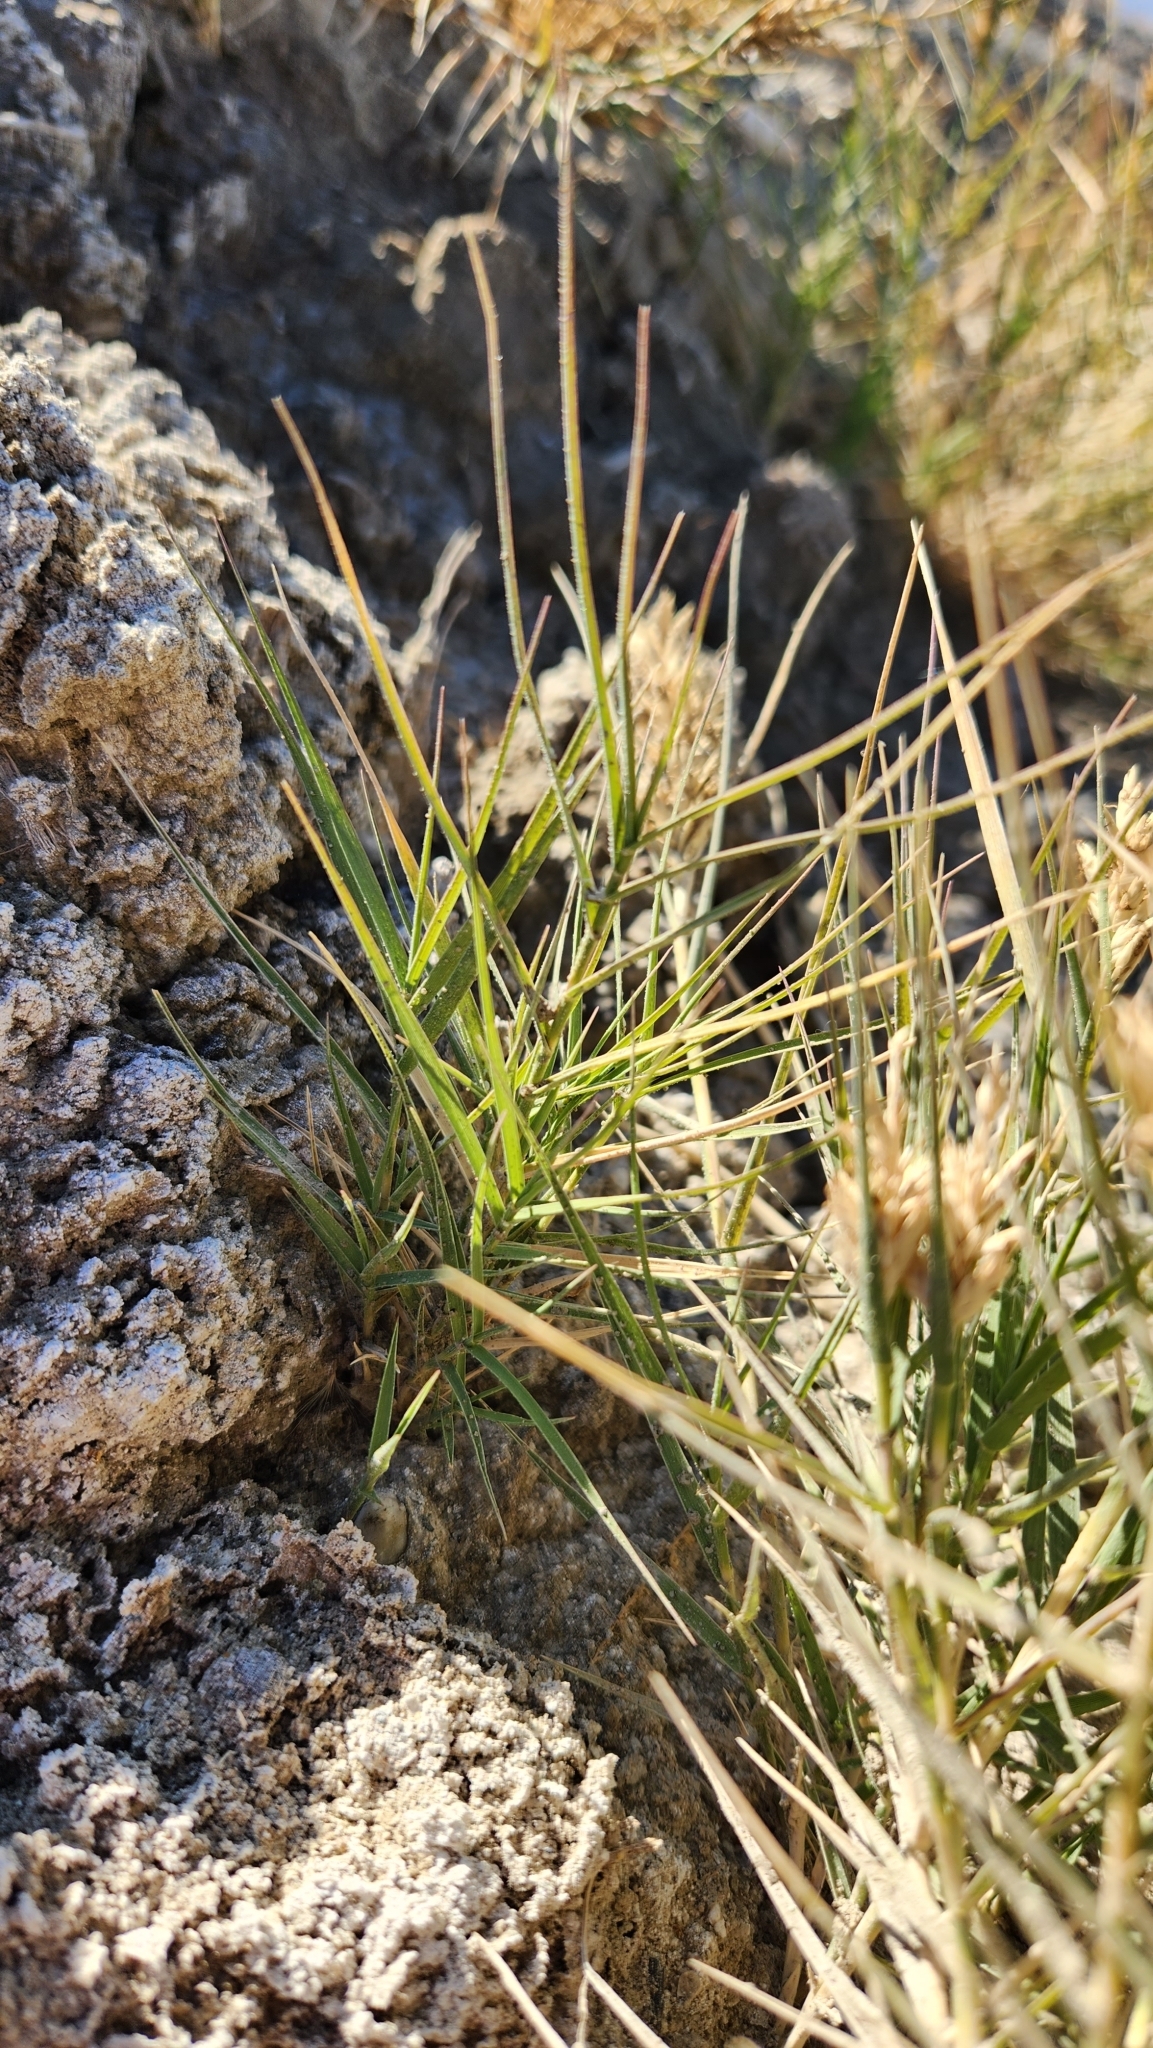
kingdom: Plantae
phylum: Tracheophyta
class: Liliopsida
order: Poales
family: Poaceae
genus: Distichlis
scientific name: Distichlis spicata
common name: Saltgrass
